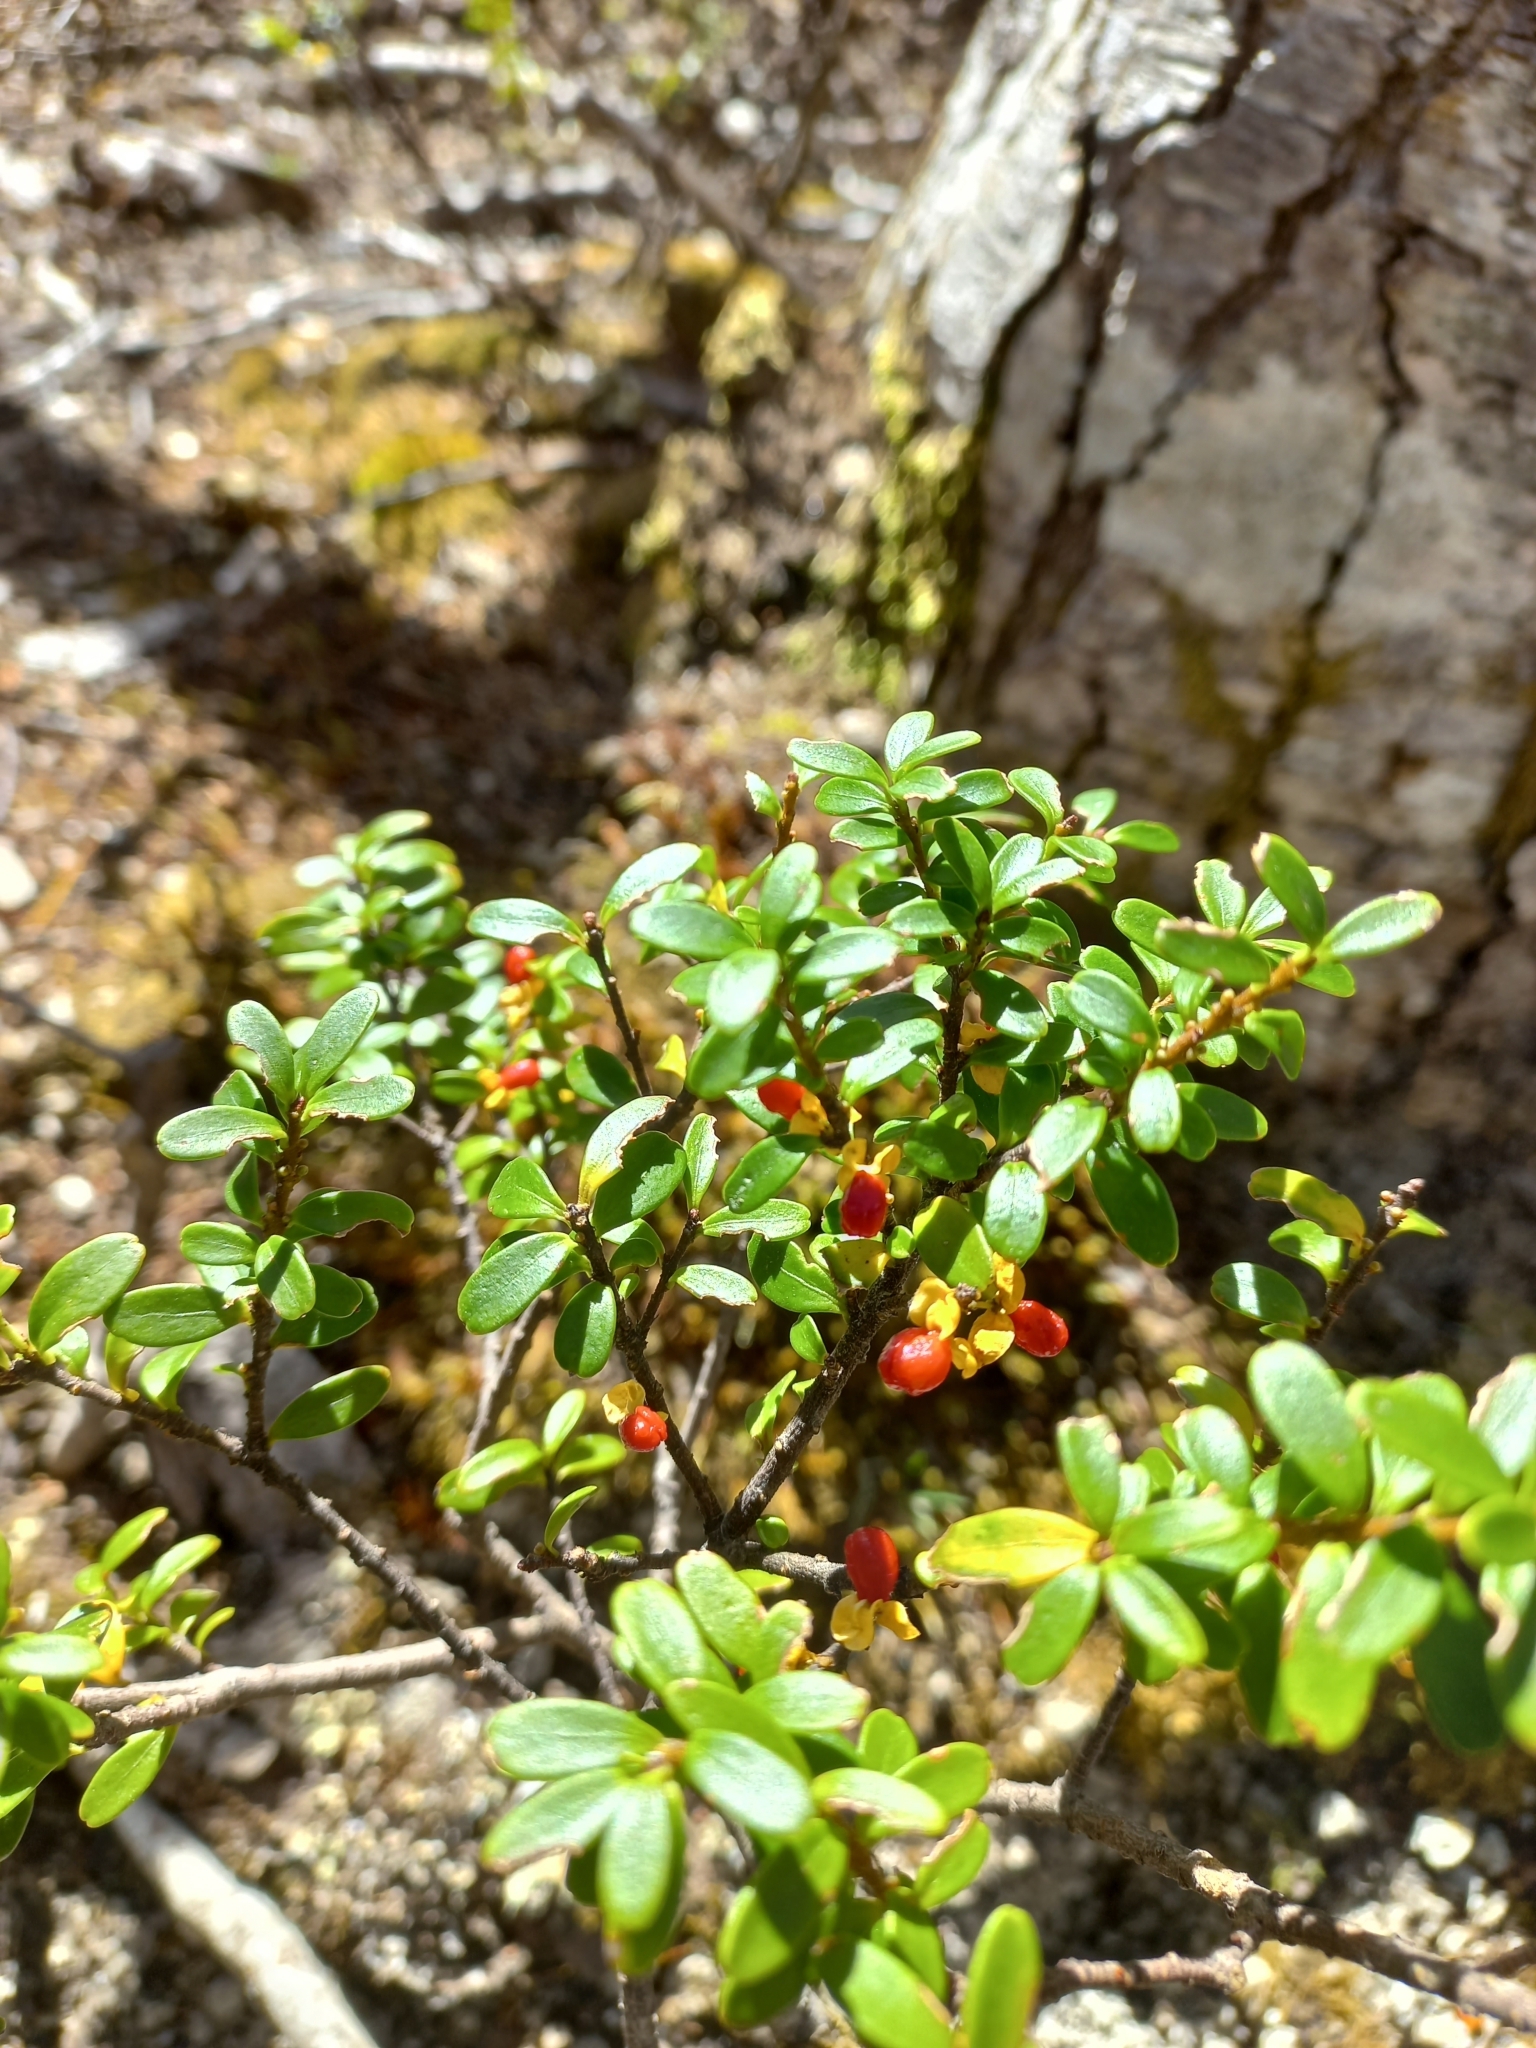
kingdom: Plantae
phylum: Tracheophyta
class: Magnoliopsida
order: Celastrales
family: Celastraceae
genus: Maytenus
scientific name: Maytenus disticha
